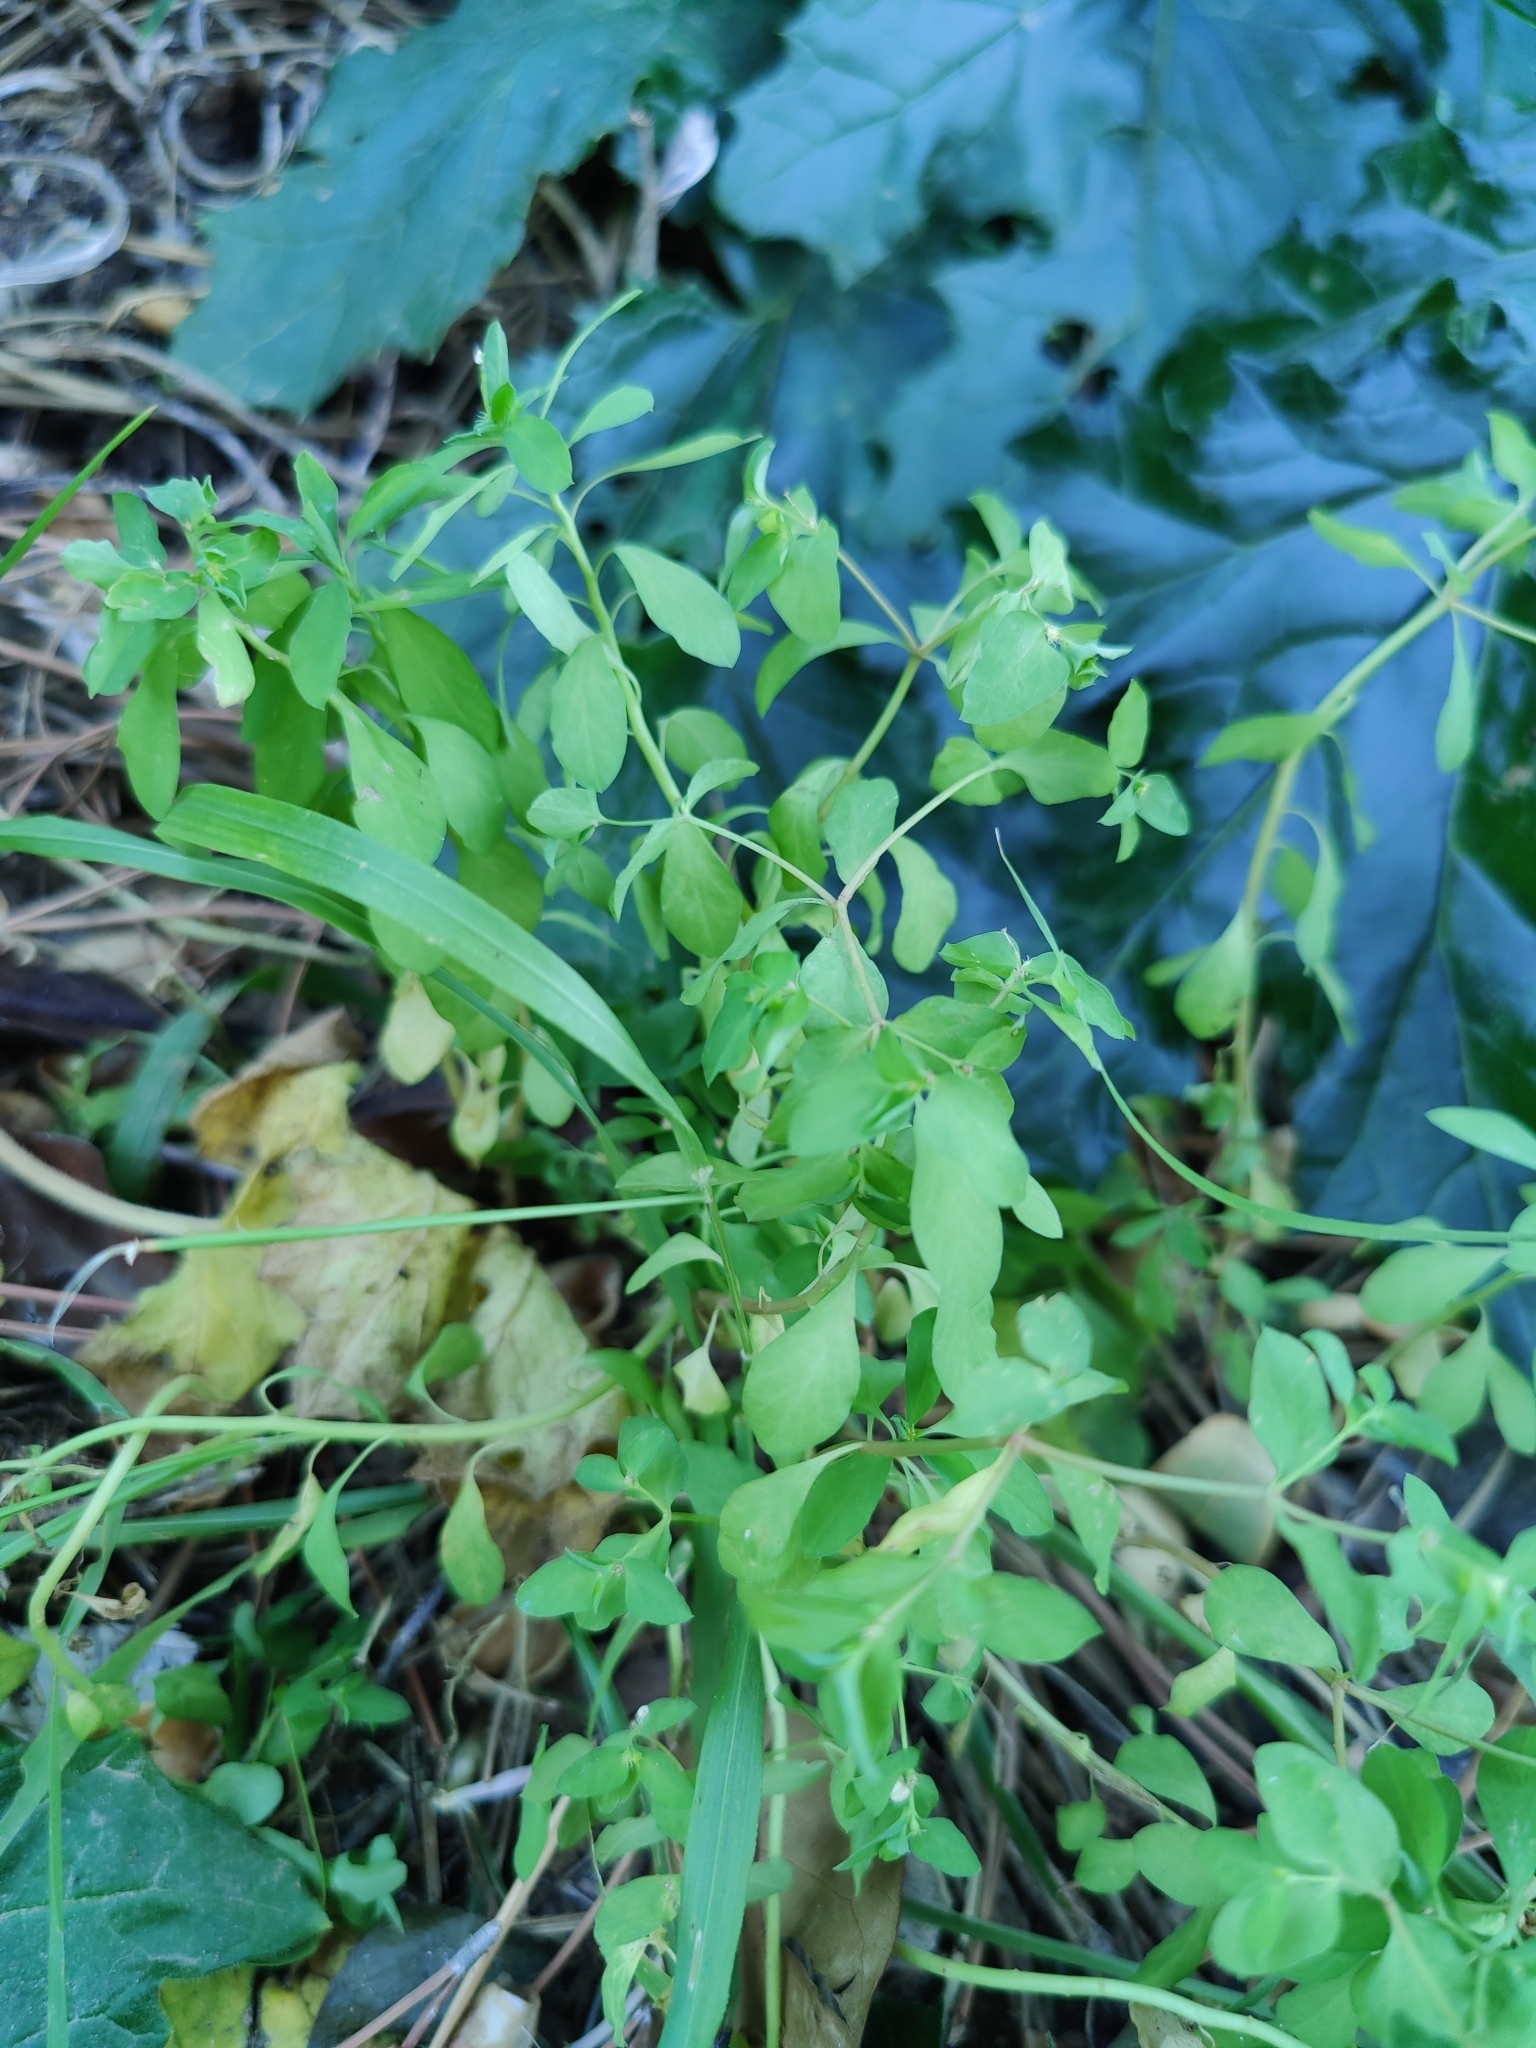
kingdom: Plantae
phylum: Tracheophyta
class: Magnoliopsida
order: Malpighiales
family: Euphorbiaceae
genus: Euphorbia
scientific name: Euphorbia peplus
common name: Petty spurge
